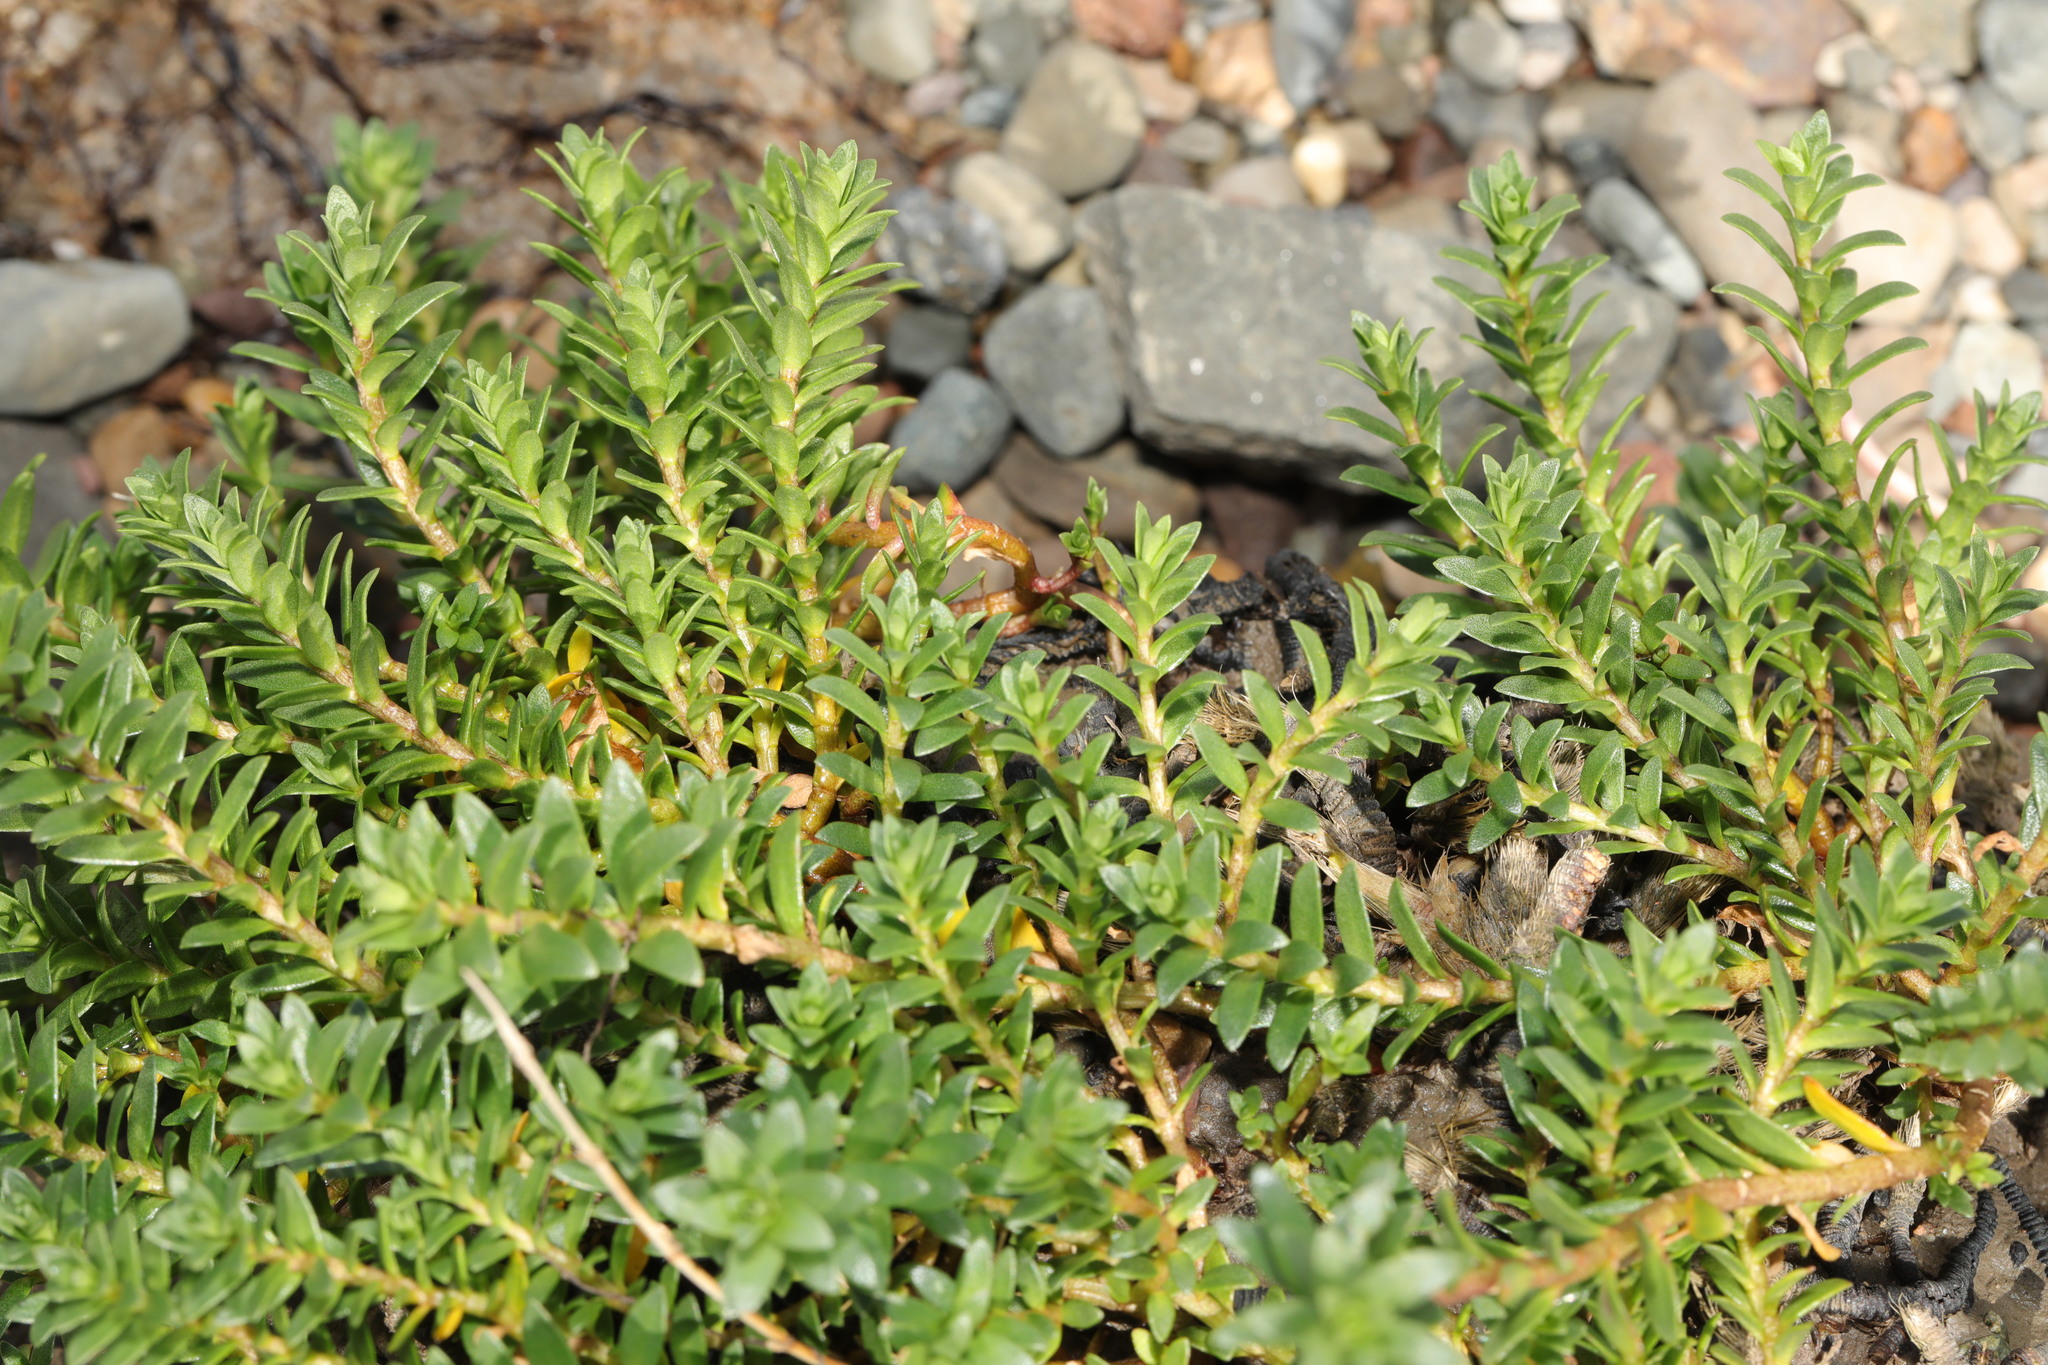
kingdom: Plantae
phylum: Tracheophyta
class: Magnoliopsida
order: Ericales
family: Primulaceae
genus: Lysimachia
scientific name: Lysimachia maritima
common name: Sea milkwort
